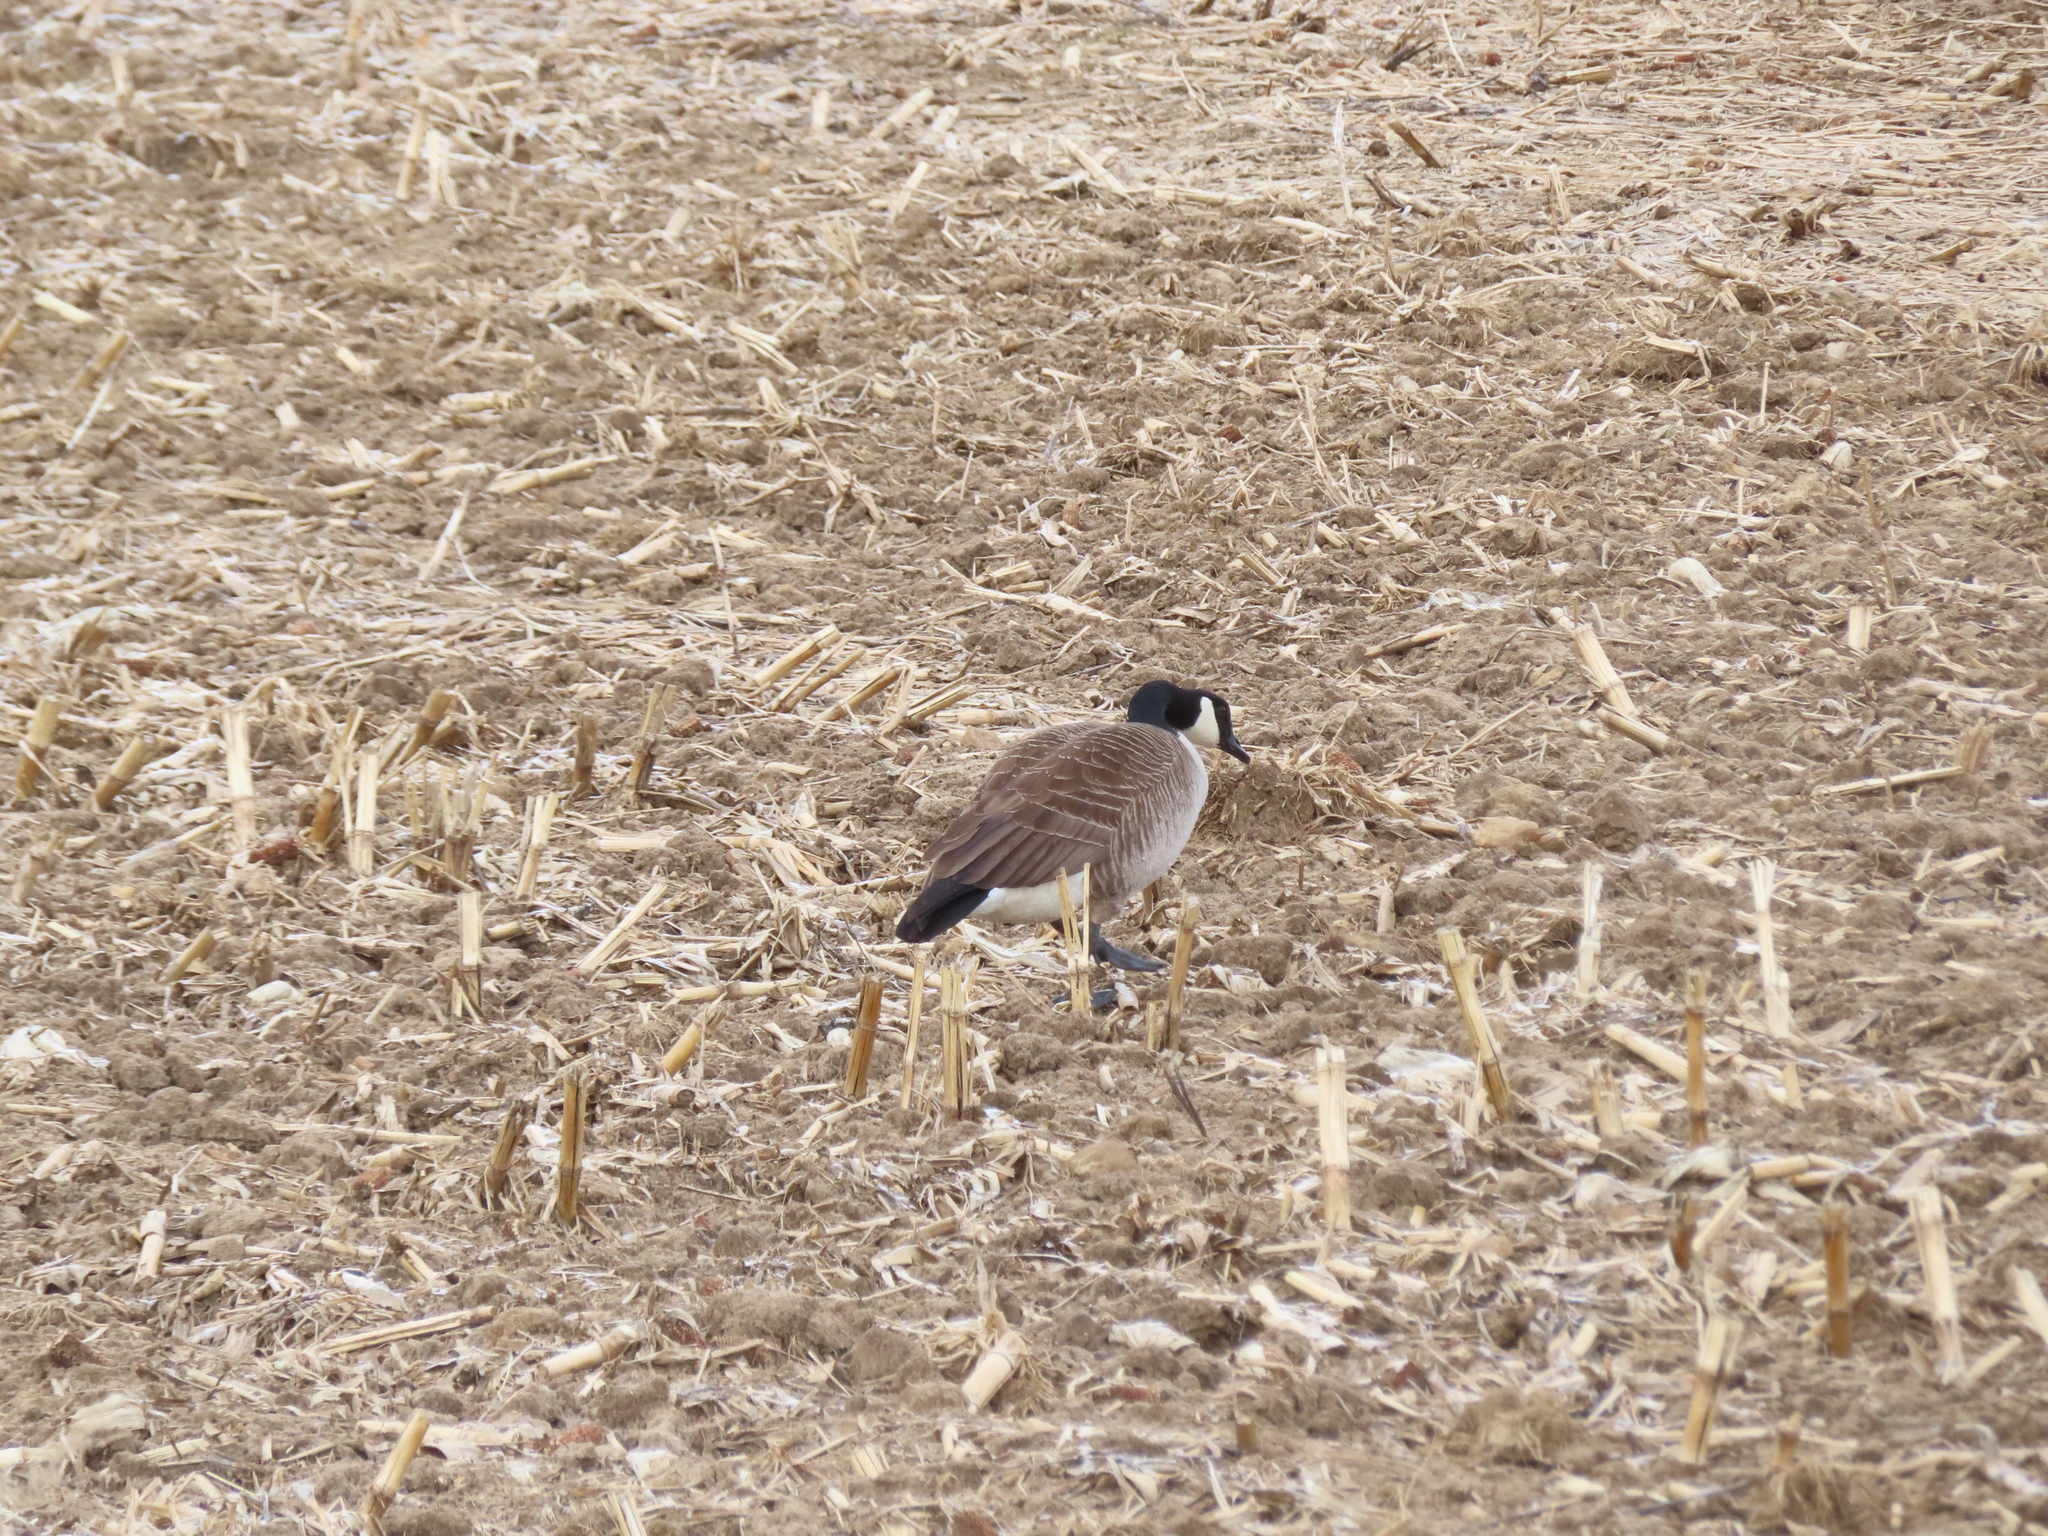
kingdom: Animalia
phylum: Chordata
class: Aves
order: Anseriformes
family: Anatidae
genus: Branta
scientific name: Branta canadensis
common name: Canada goose
